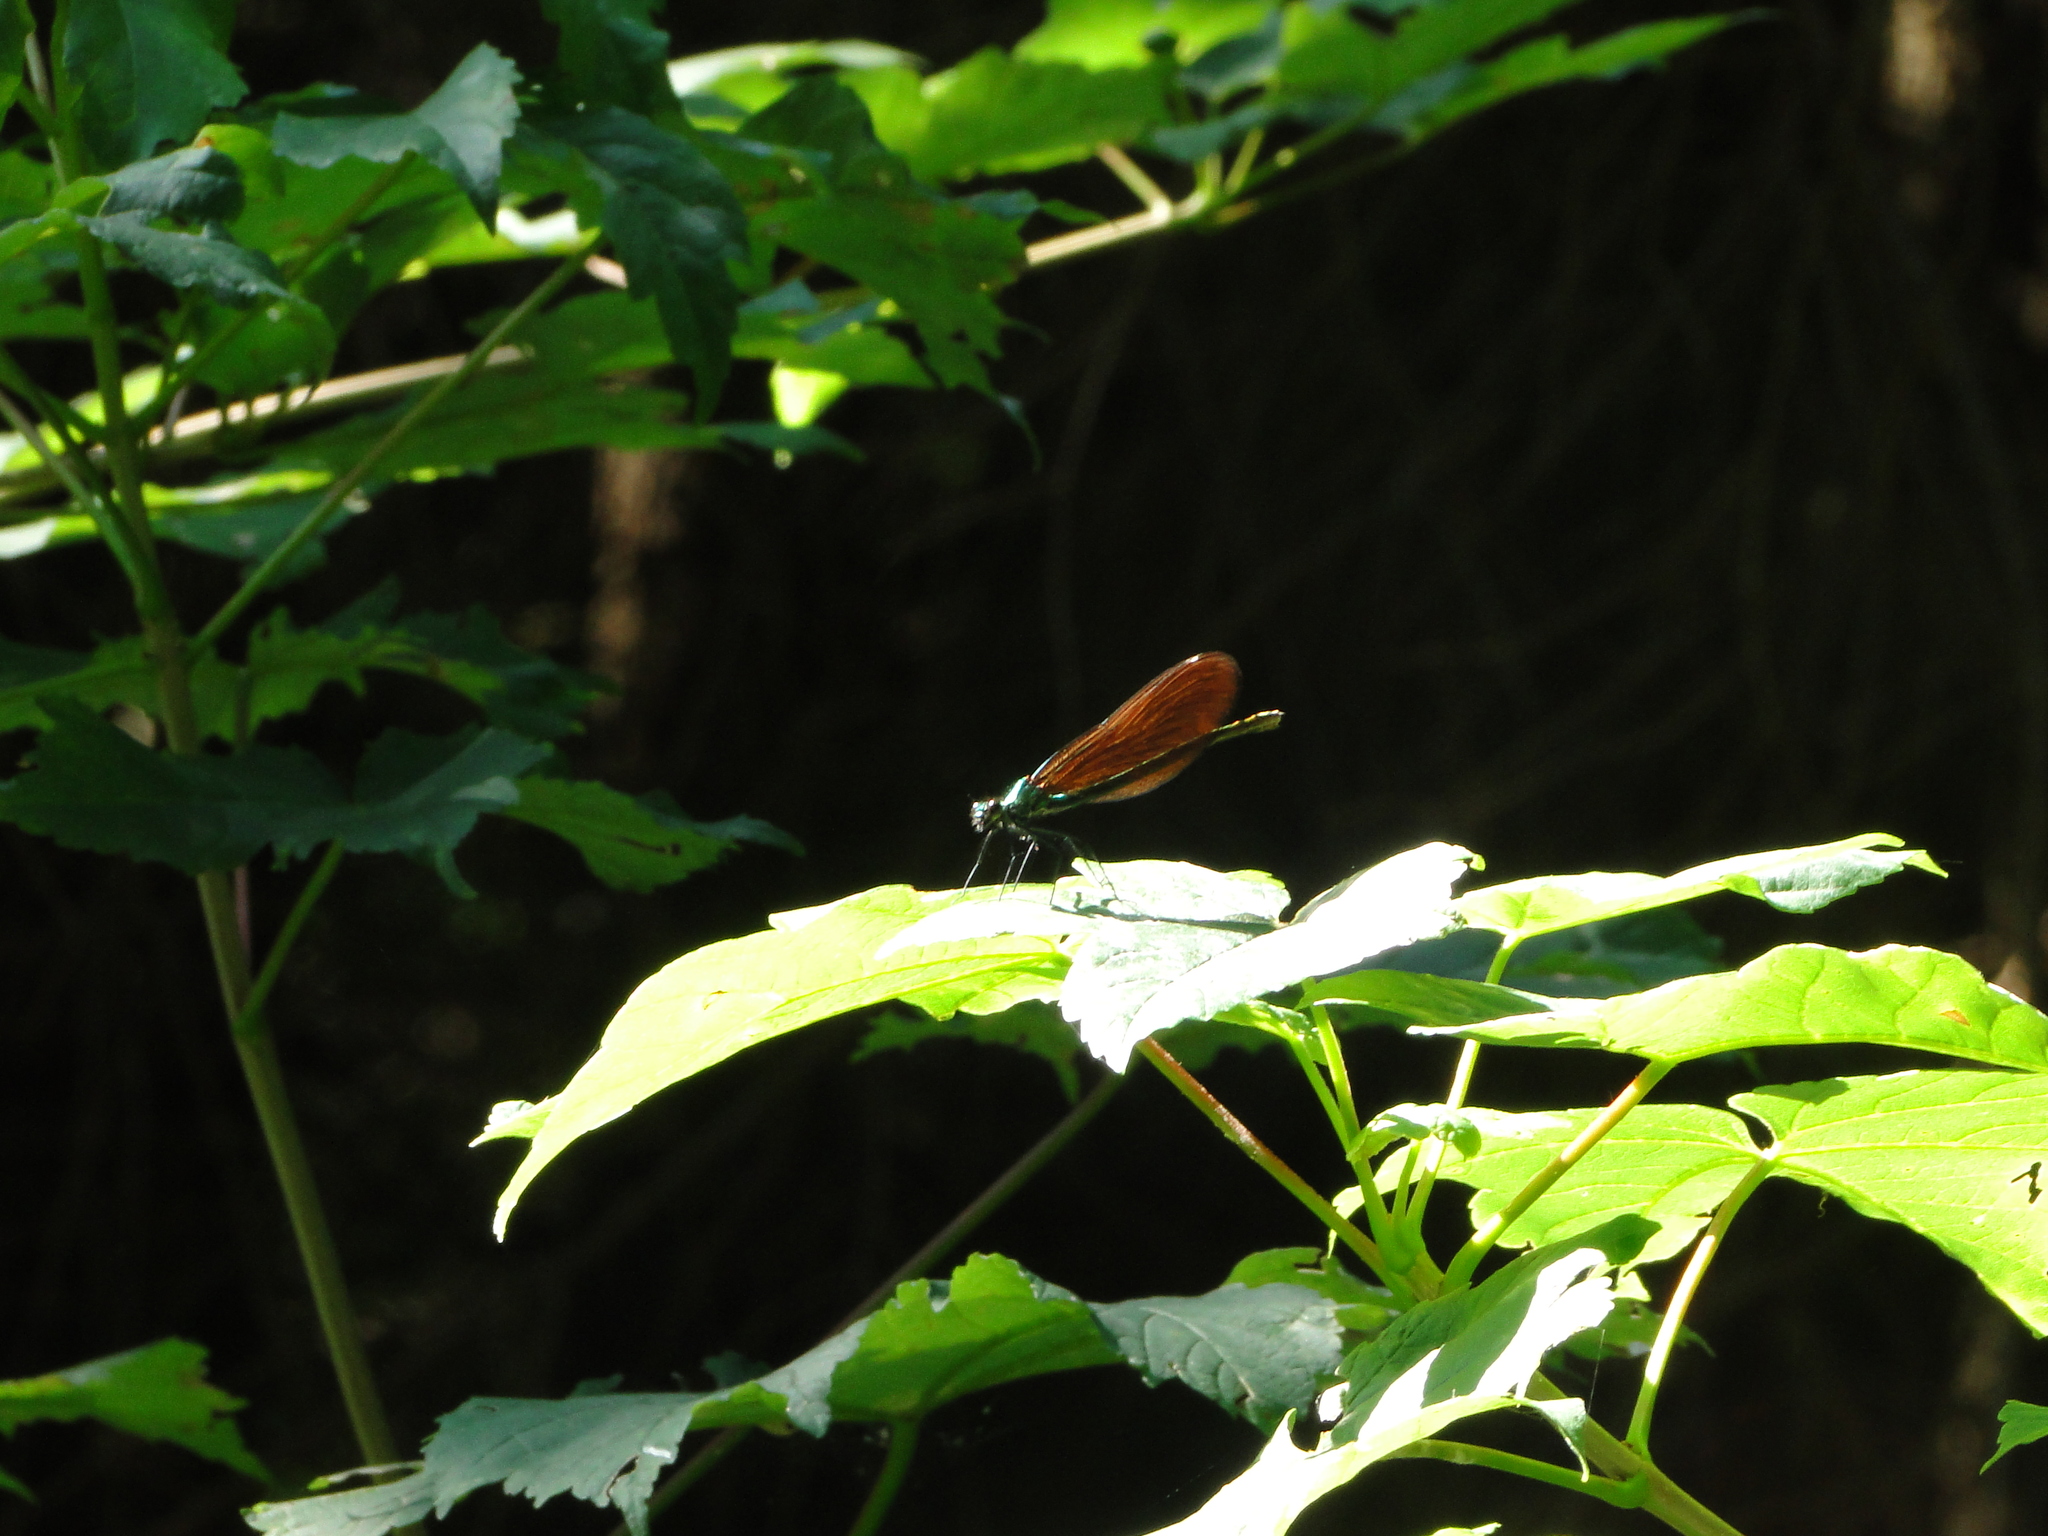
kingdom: Animalia
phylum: Arthropoda
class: Insecta
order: Odonata
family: Calopterygidae
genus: Calopteryx
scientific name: Calopteryx virgo
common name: Beautiful demoiselle
